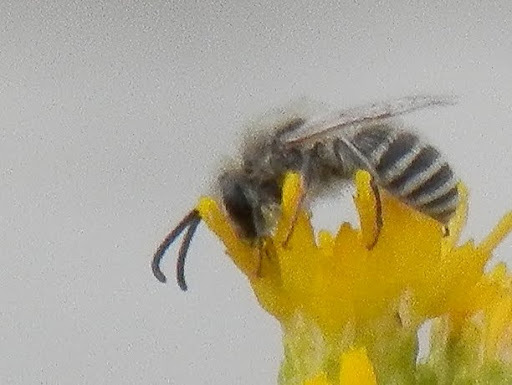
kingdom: Animalia
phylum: Arthropoda
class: Insecta
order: Hymenoptera
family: Colletidae
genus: Colletes
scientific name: Colletes
